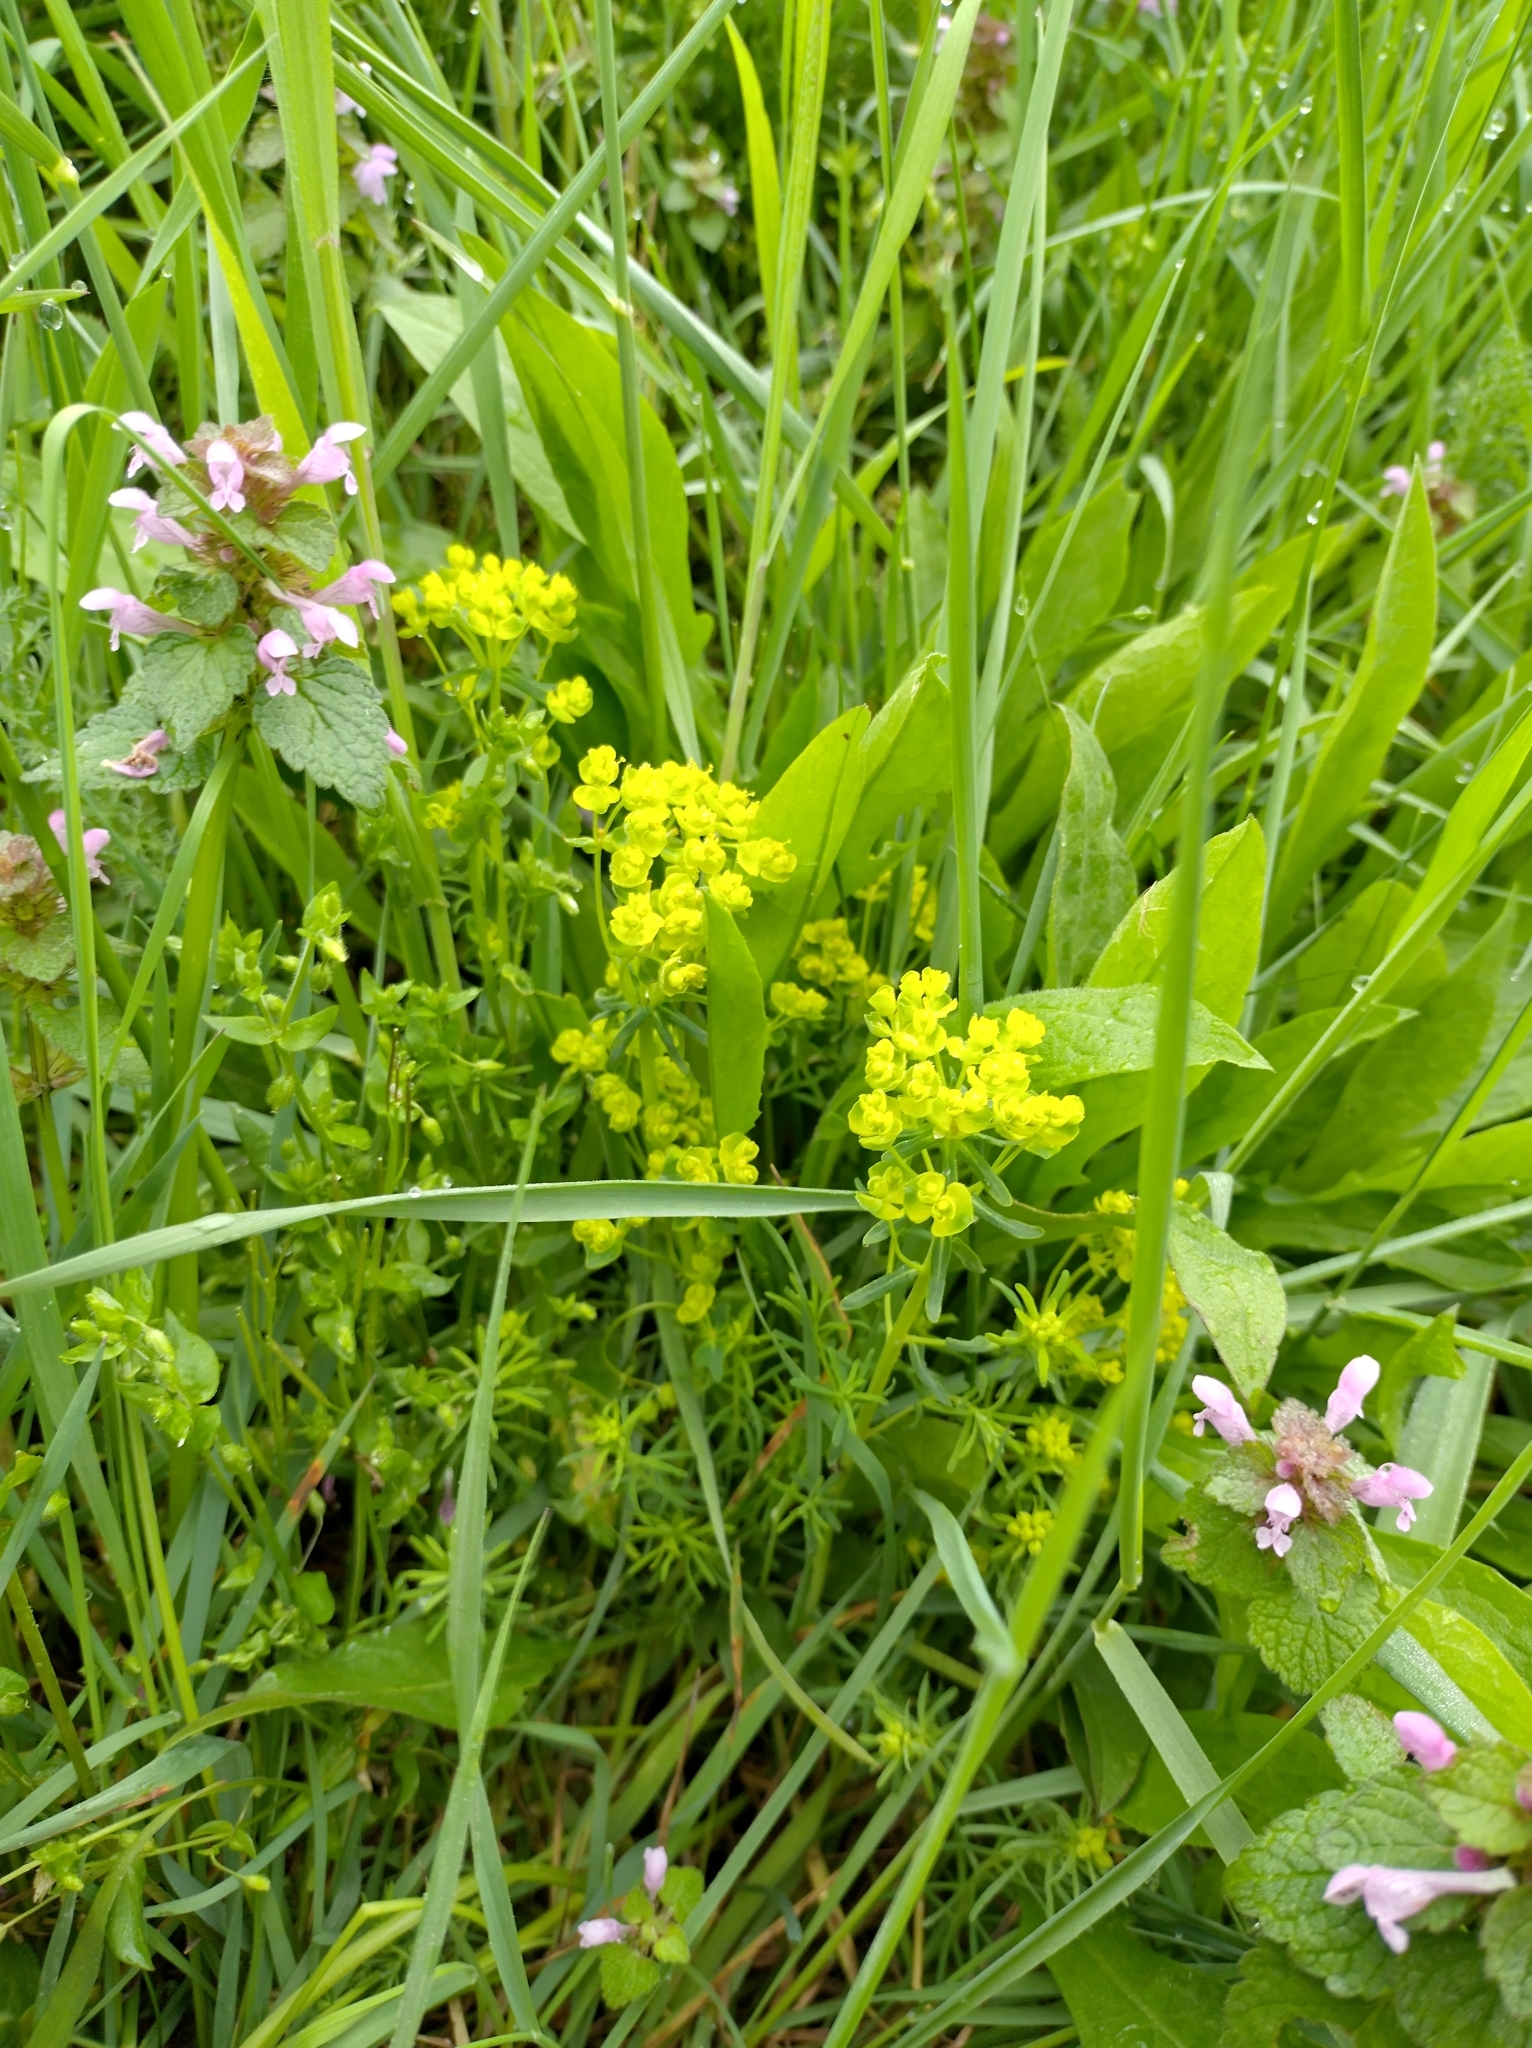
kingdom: Plantae
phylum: Tracheophyta
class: Magnoliopsida
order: Malpighiales
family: Euphorbiaceae
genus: Euphorbia
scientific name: Euphorbia cyparissias
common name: Cypress spurge
